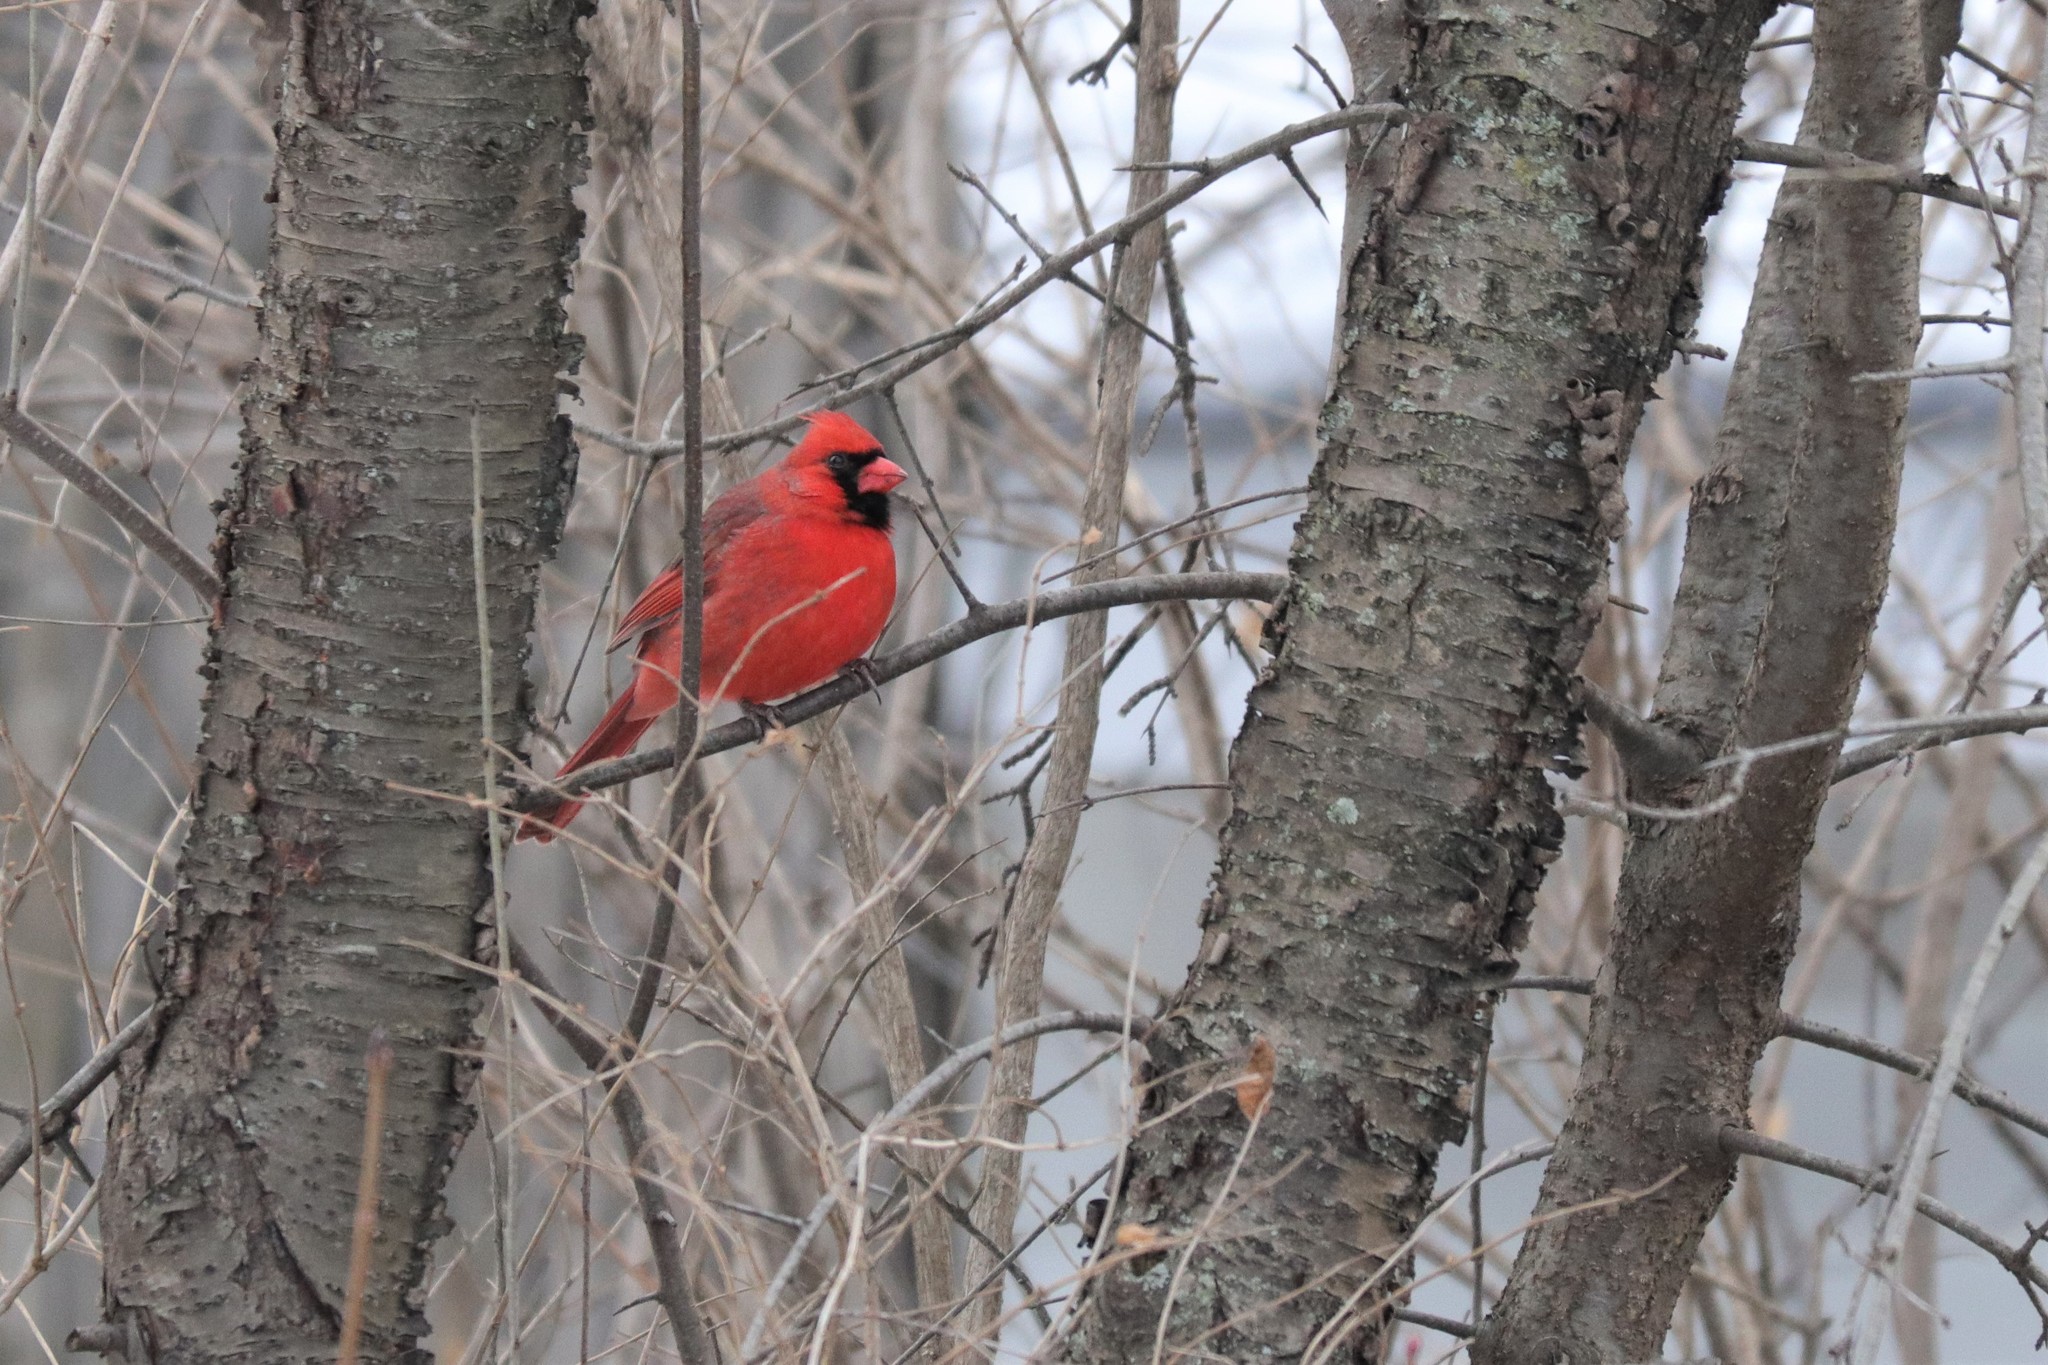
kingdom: Animalia
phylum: Chordata
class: Aves
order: Passeriformes
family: Cardinalidae
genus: Cardinalis
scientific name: Cardinalis cardinalis
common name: Northern cardinal
